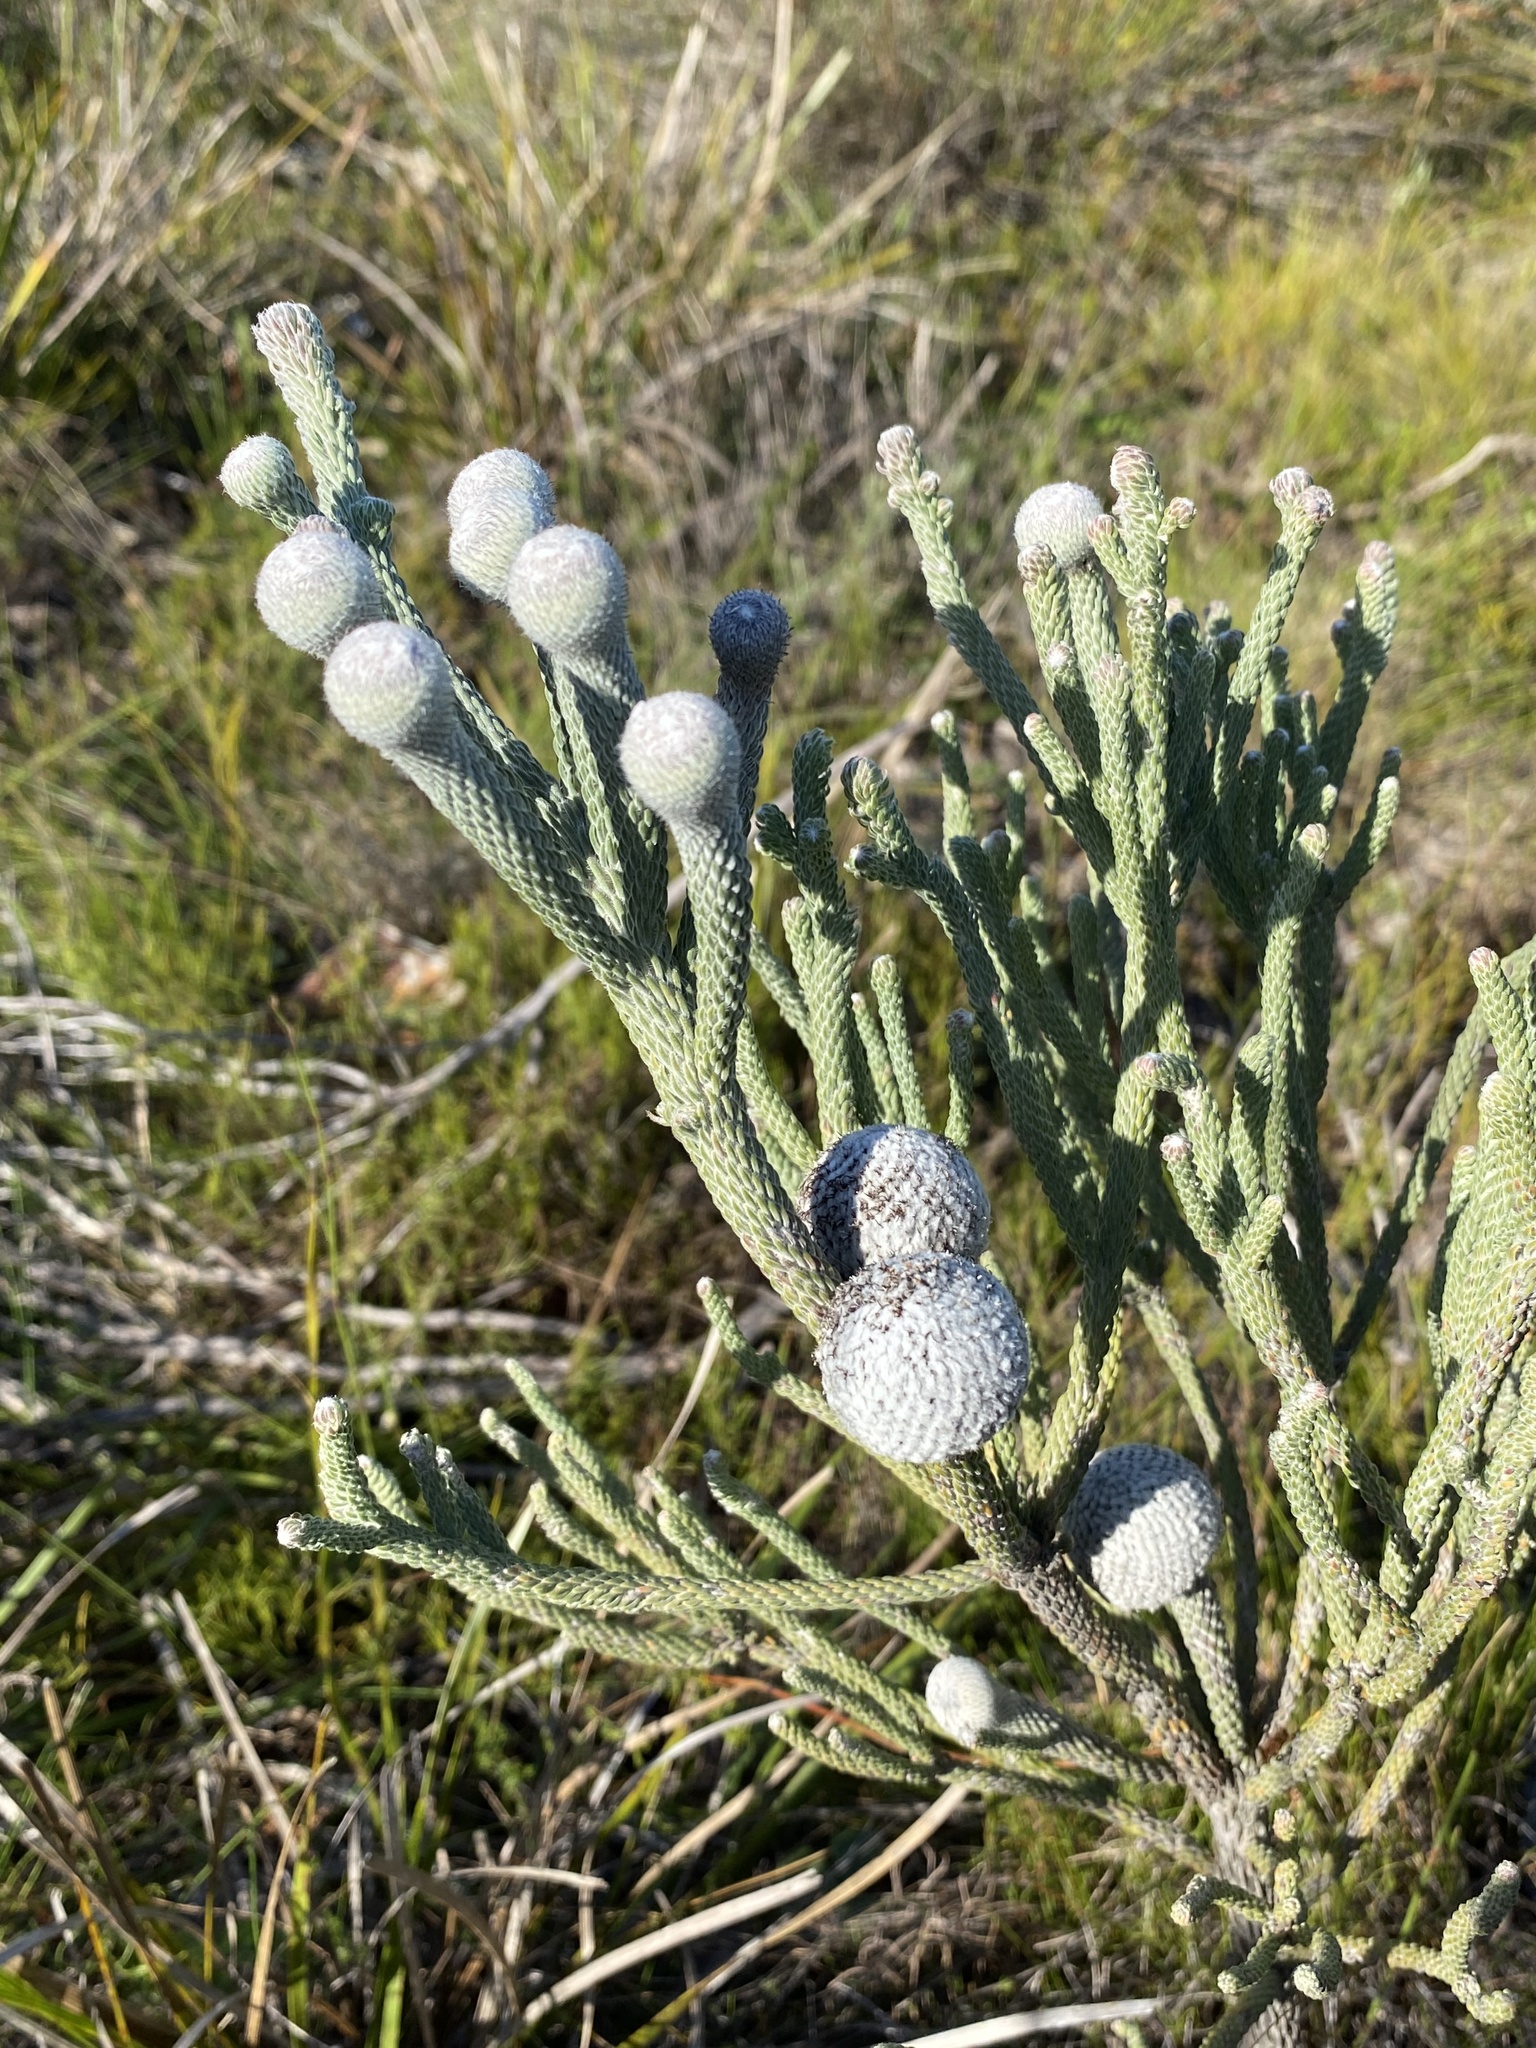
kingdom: Plantae
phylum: Tracheophyta
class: Magnoliopsida
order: Bruniales
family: Bruniaceae
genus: Brunia
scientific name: Brunia noduliflora
